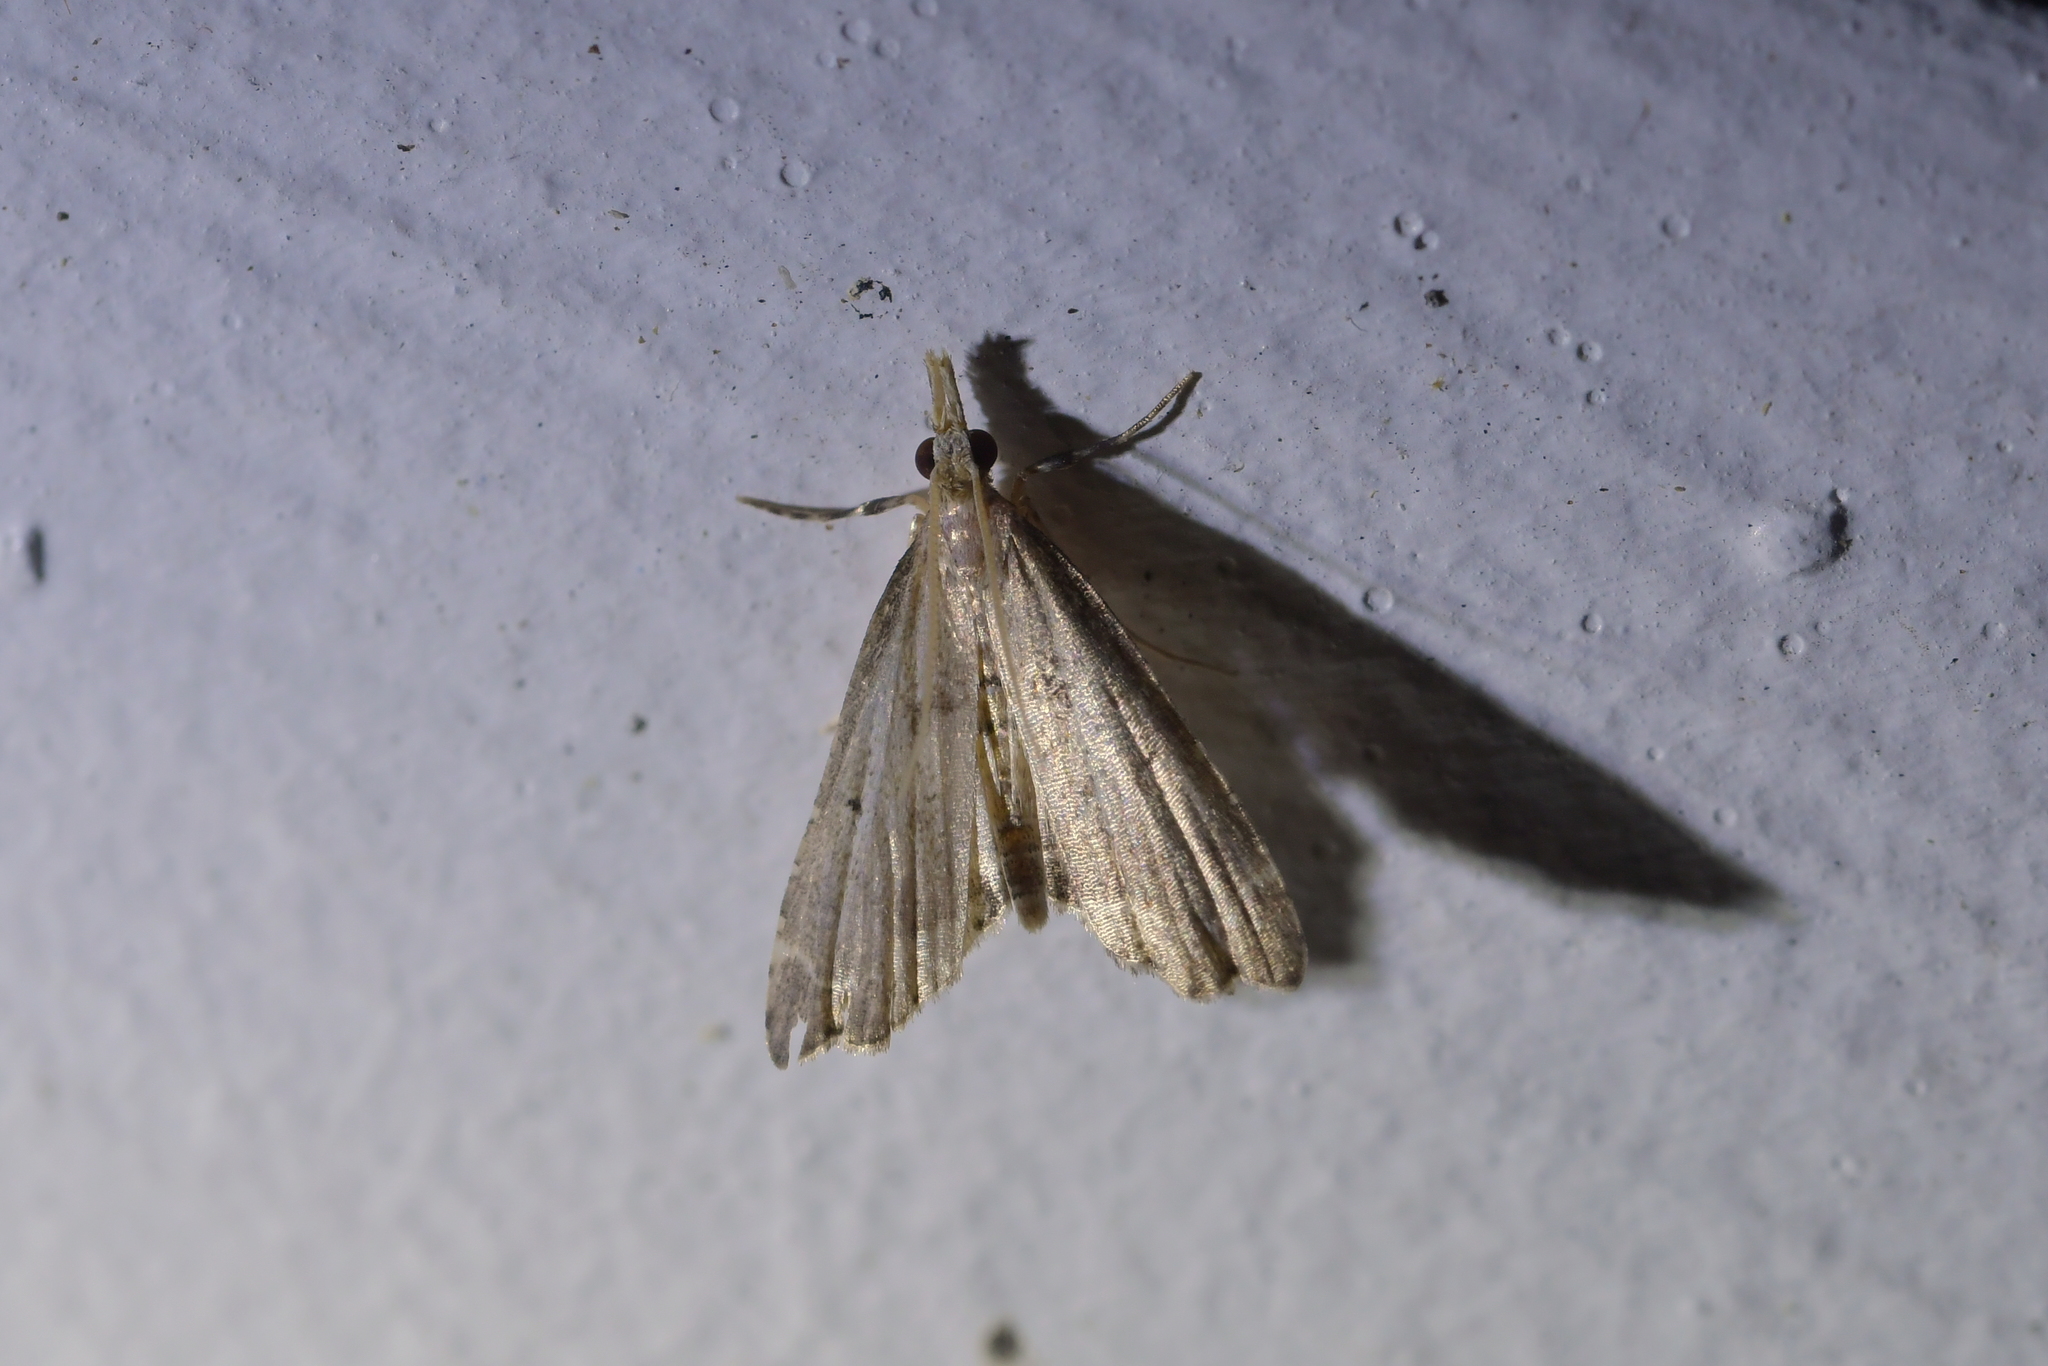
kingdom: Animalia
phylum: Arthropoda
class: Insecta
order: Lepidoptera
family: Crambidae
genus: Diplopseustis
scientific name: Diplopseustis perieresalis
